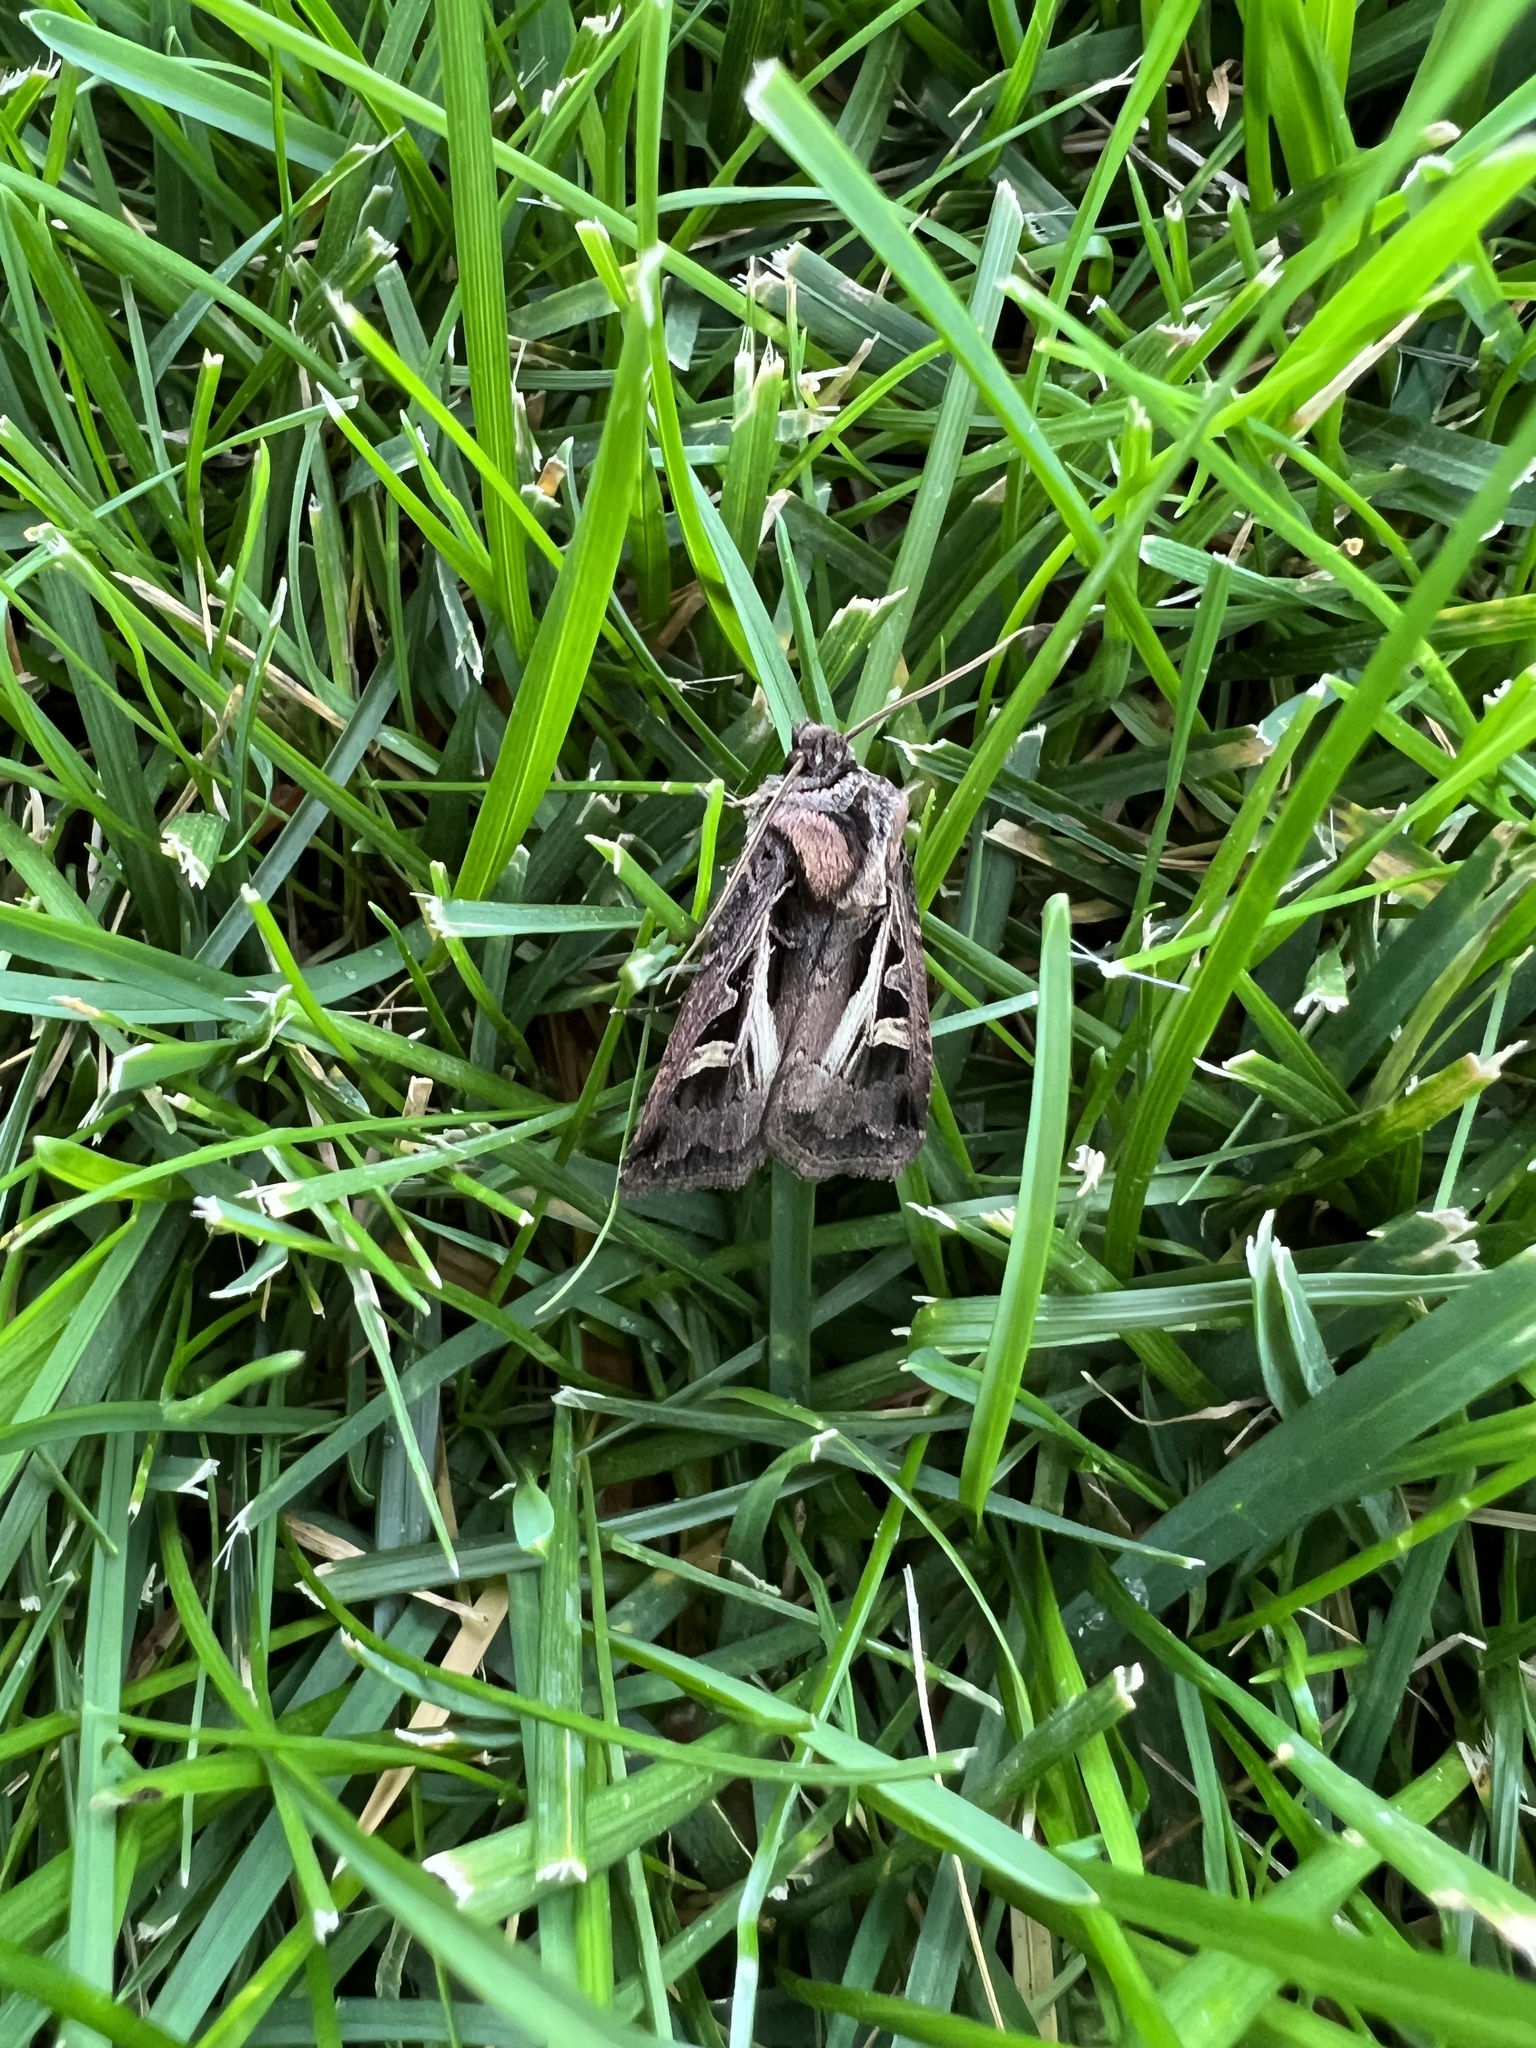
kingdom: Animalia
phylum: Arthropoda
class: Insecta
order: Lepidoptera
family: Noctuidae
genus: Feltia
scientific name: Feltia herilis
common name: Master's dart
